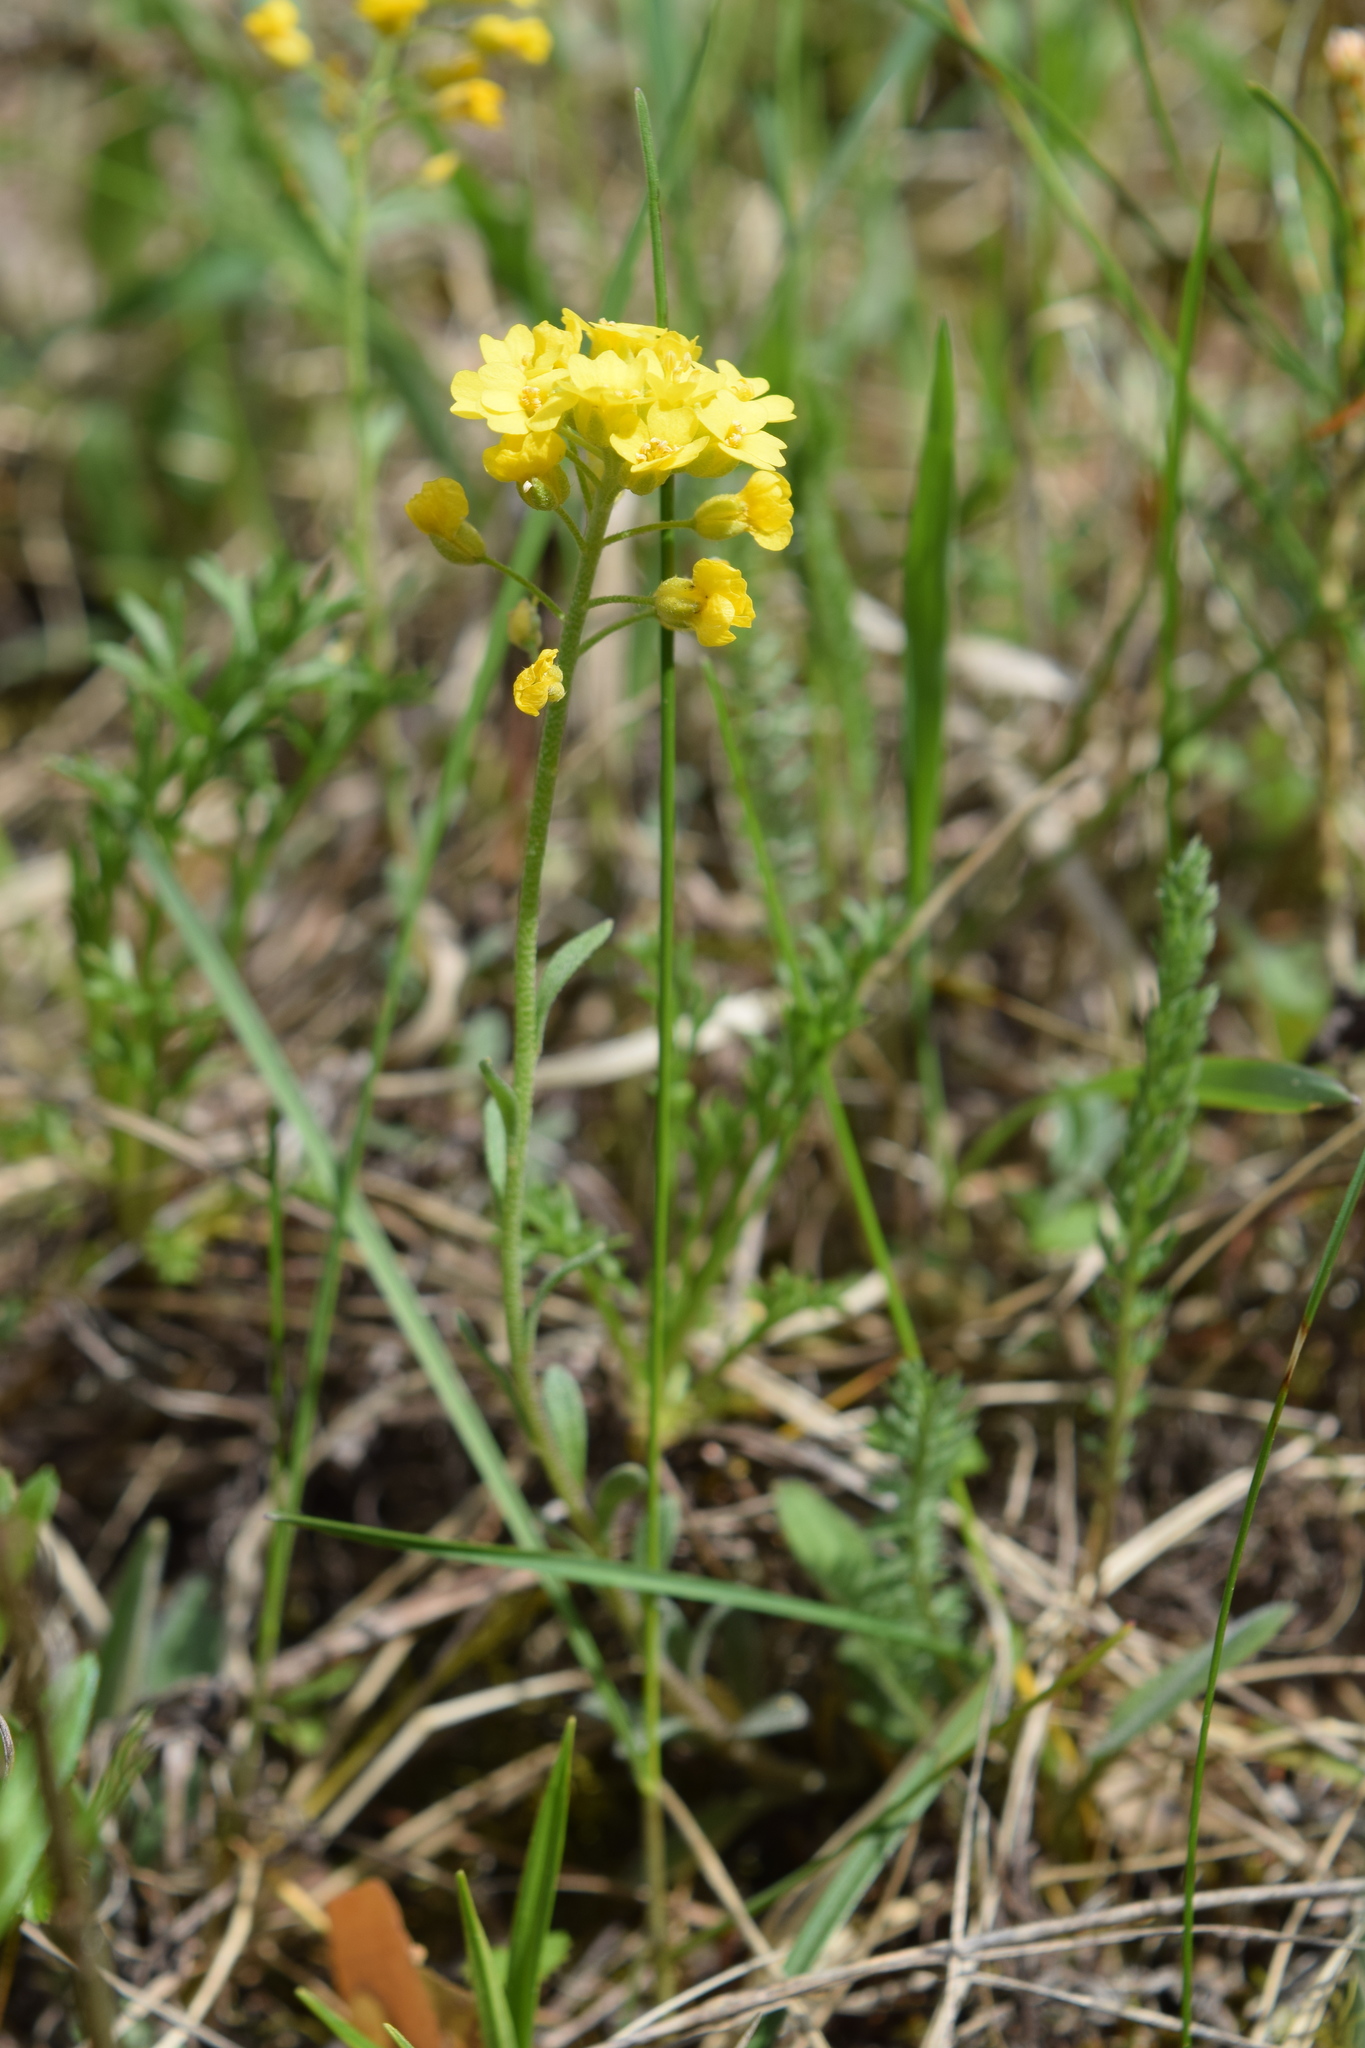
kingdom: Plantae
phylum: Tracheophyta
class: Magnoliopsida
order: Brassicales
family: Brassicaceae
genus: Alyssum
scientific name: Alyssum gmelinii
